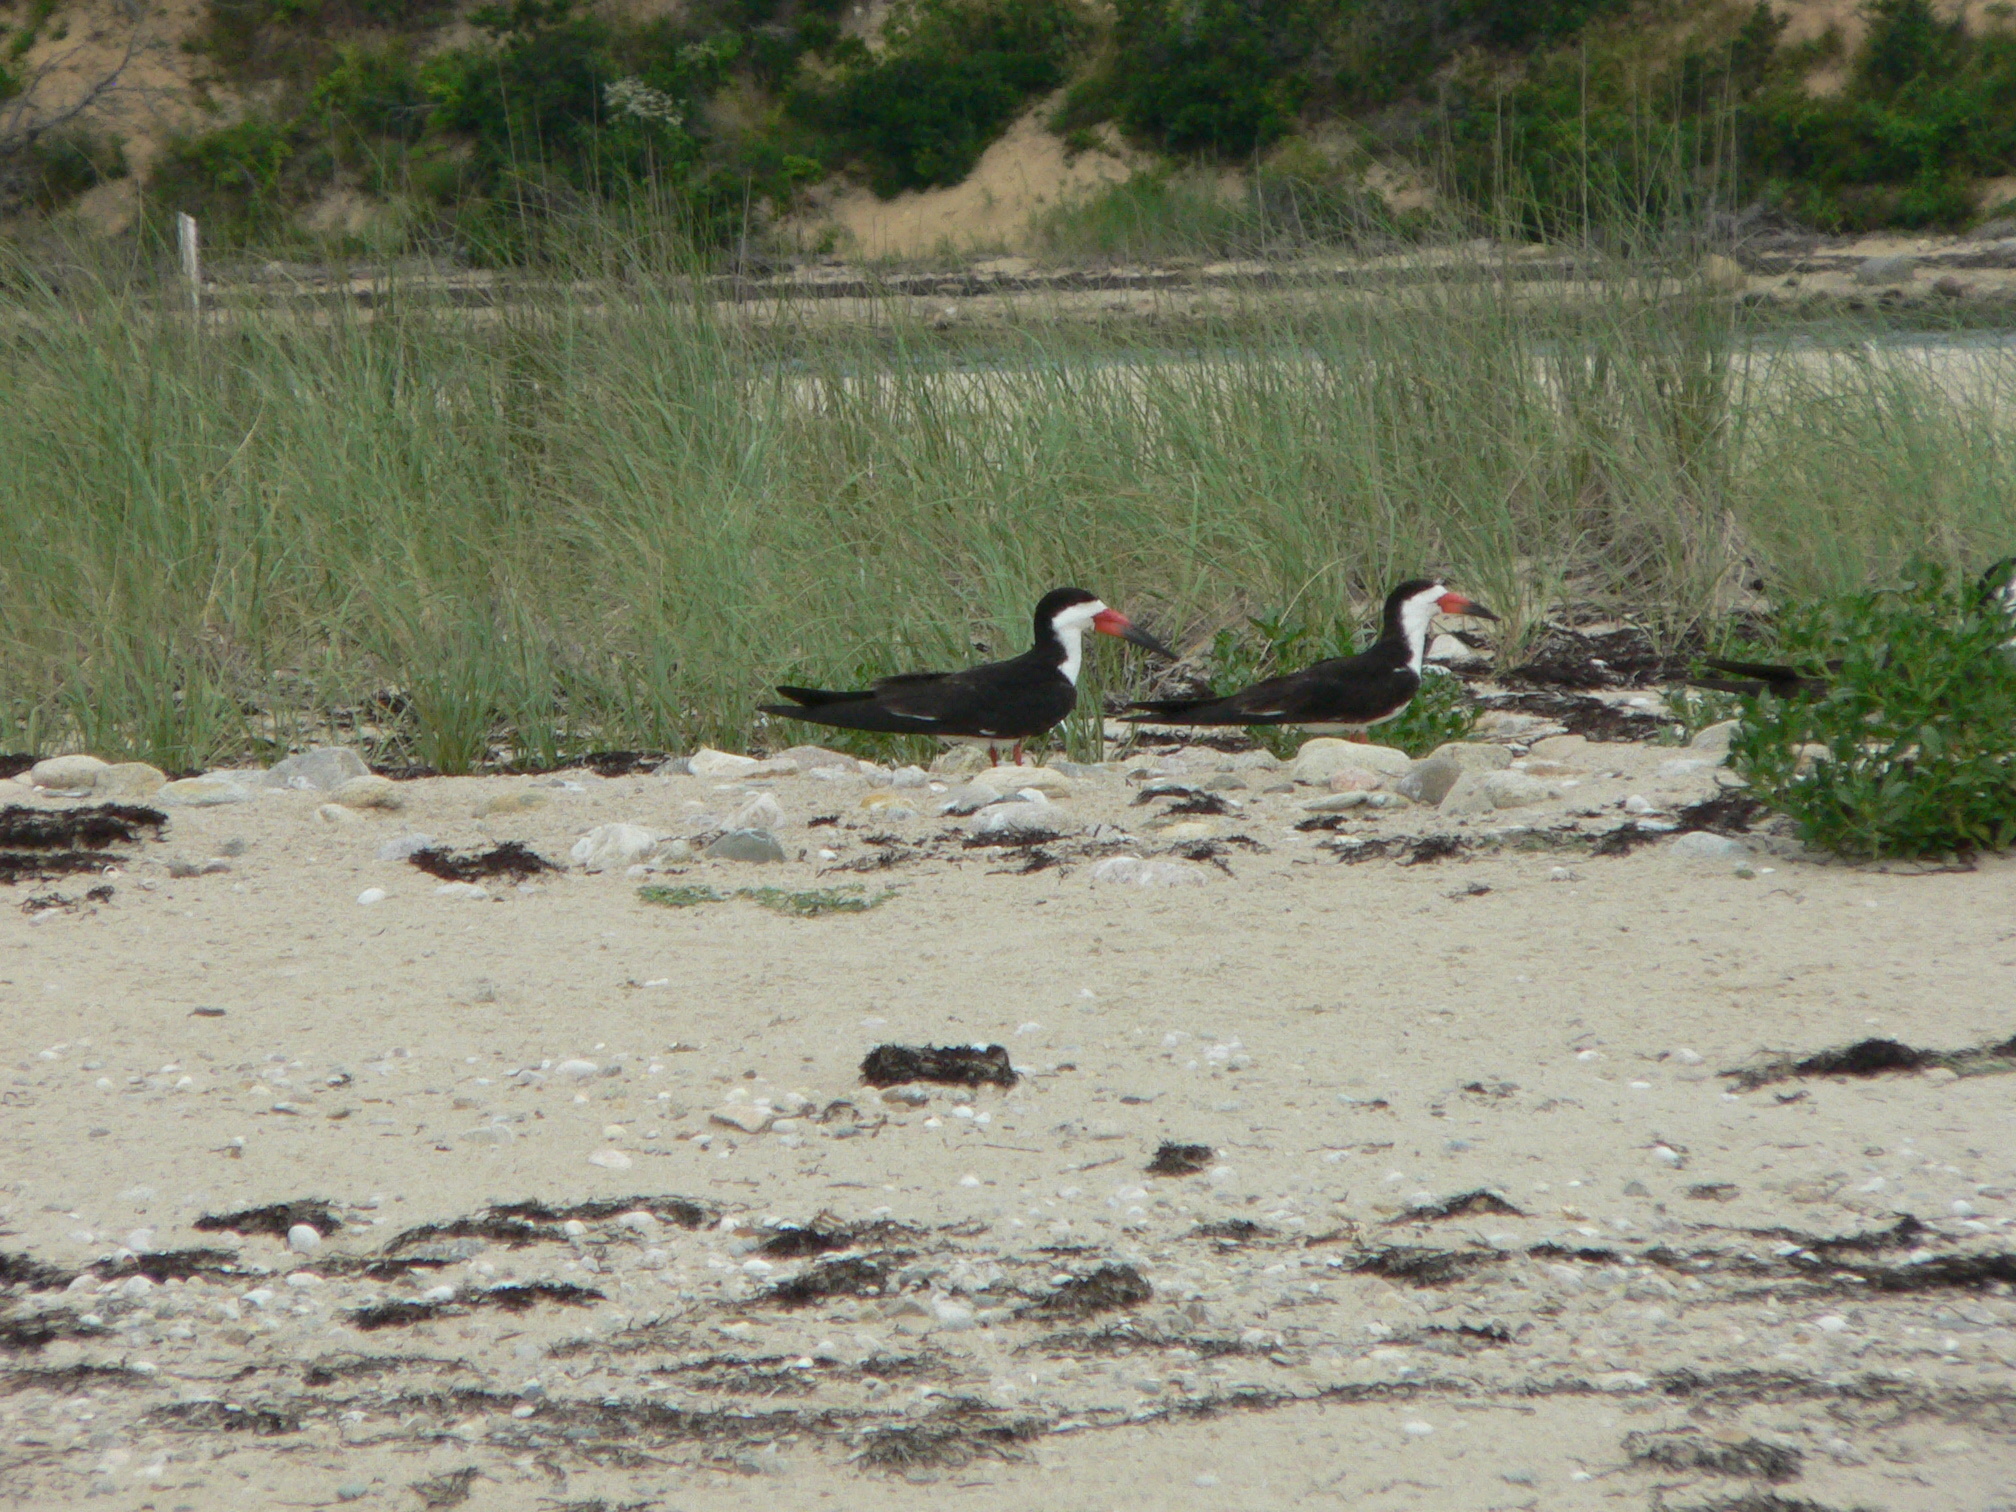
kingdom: Animalia
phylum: Chordata
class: Aves
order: Charadriiformes
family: Laridae
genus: Rynchops
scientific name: Rynchops niger
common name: Black skimmer
